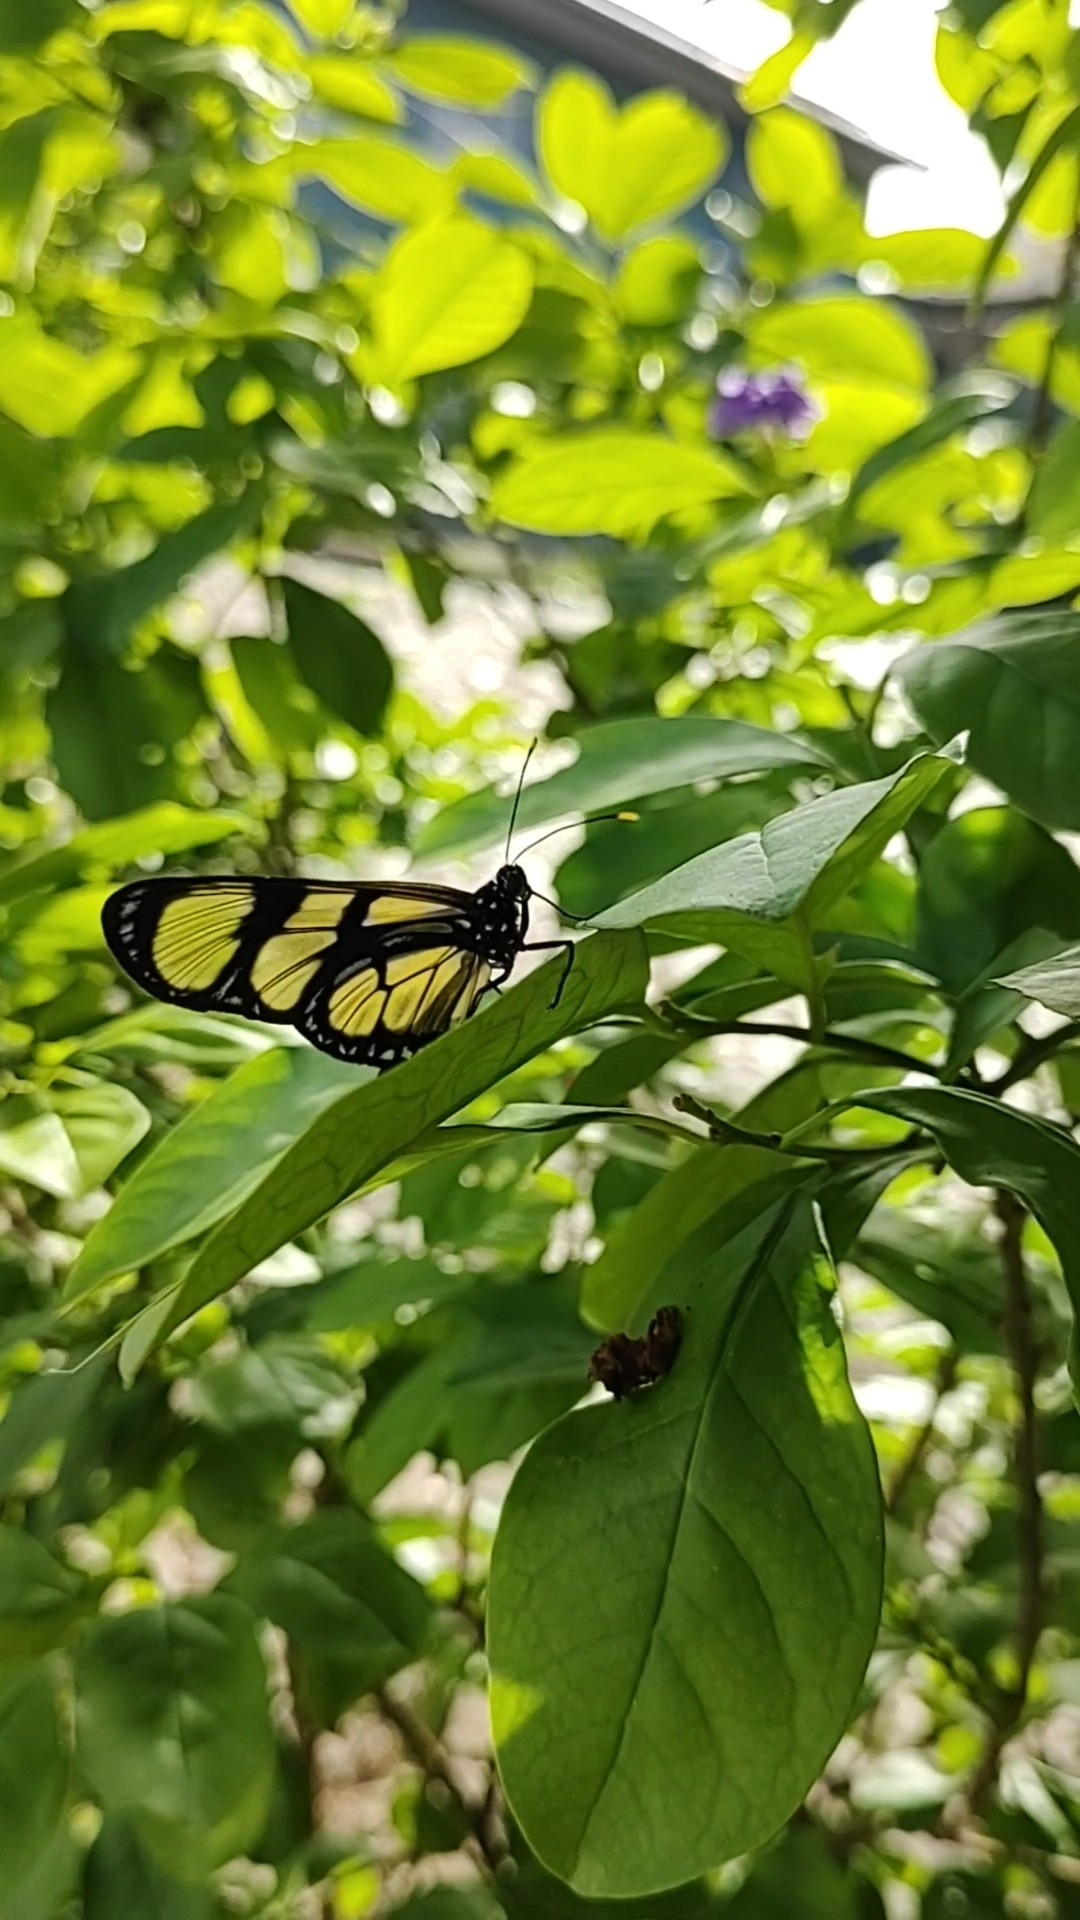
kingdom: Animalia
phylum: Arthropoda
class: Insecta
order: Lepidoptera
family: Nymphalidae
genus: Methona
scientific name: Methona themisto
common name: Themisto amberwing
